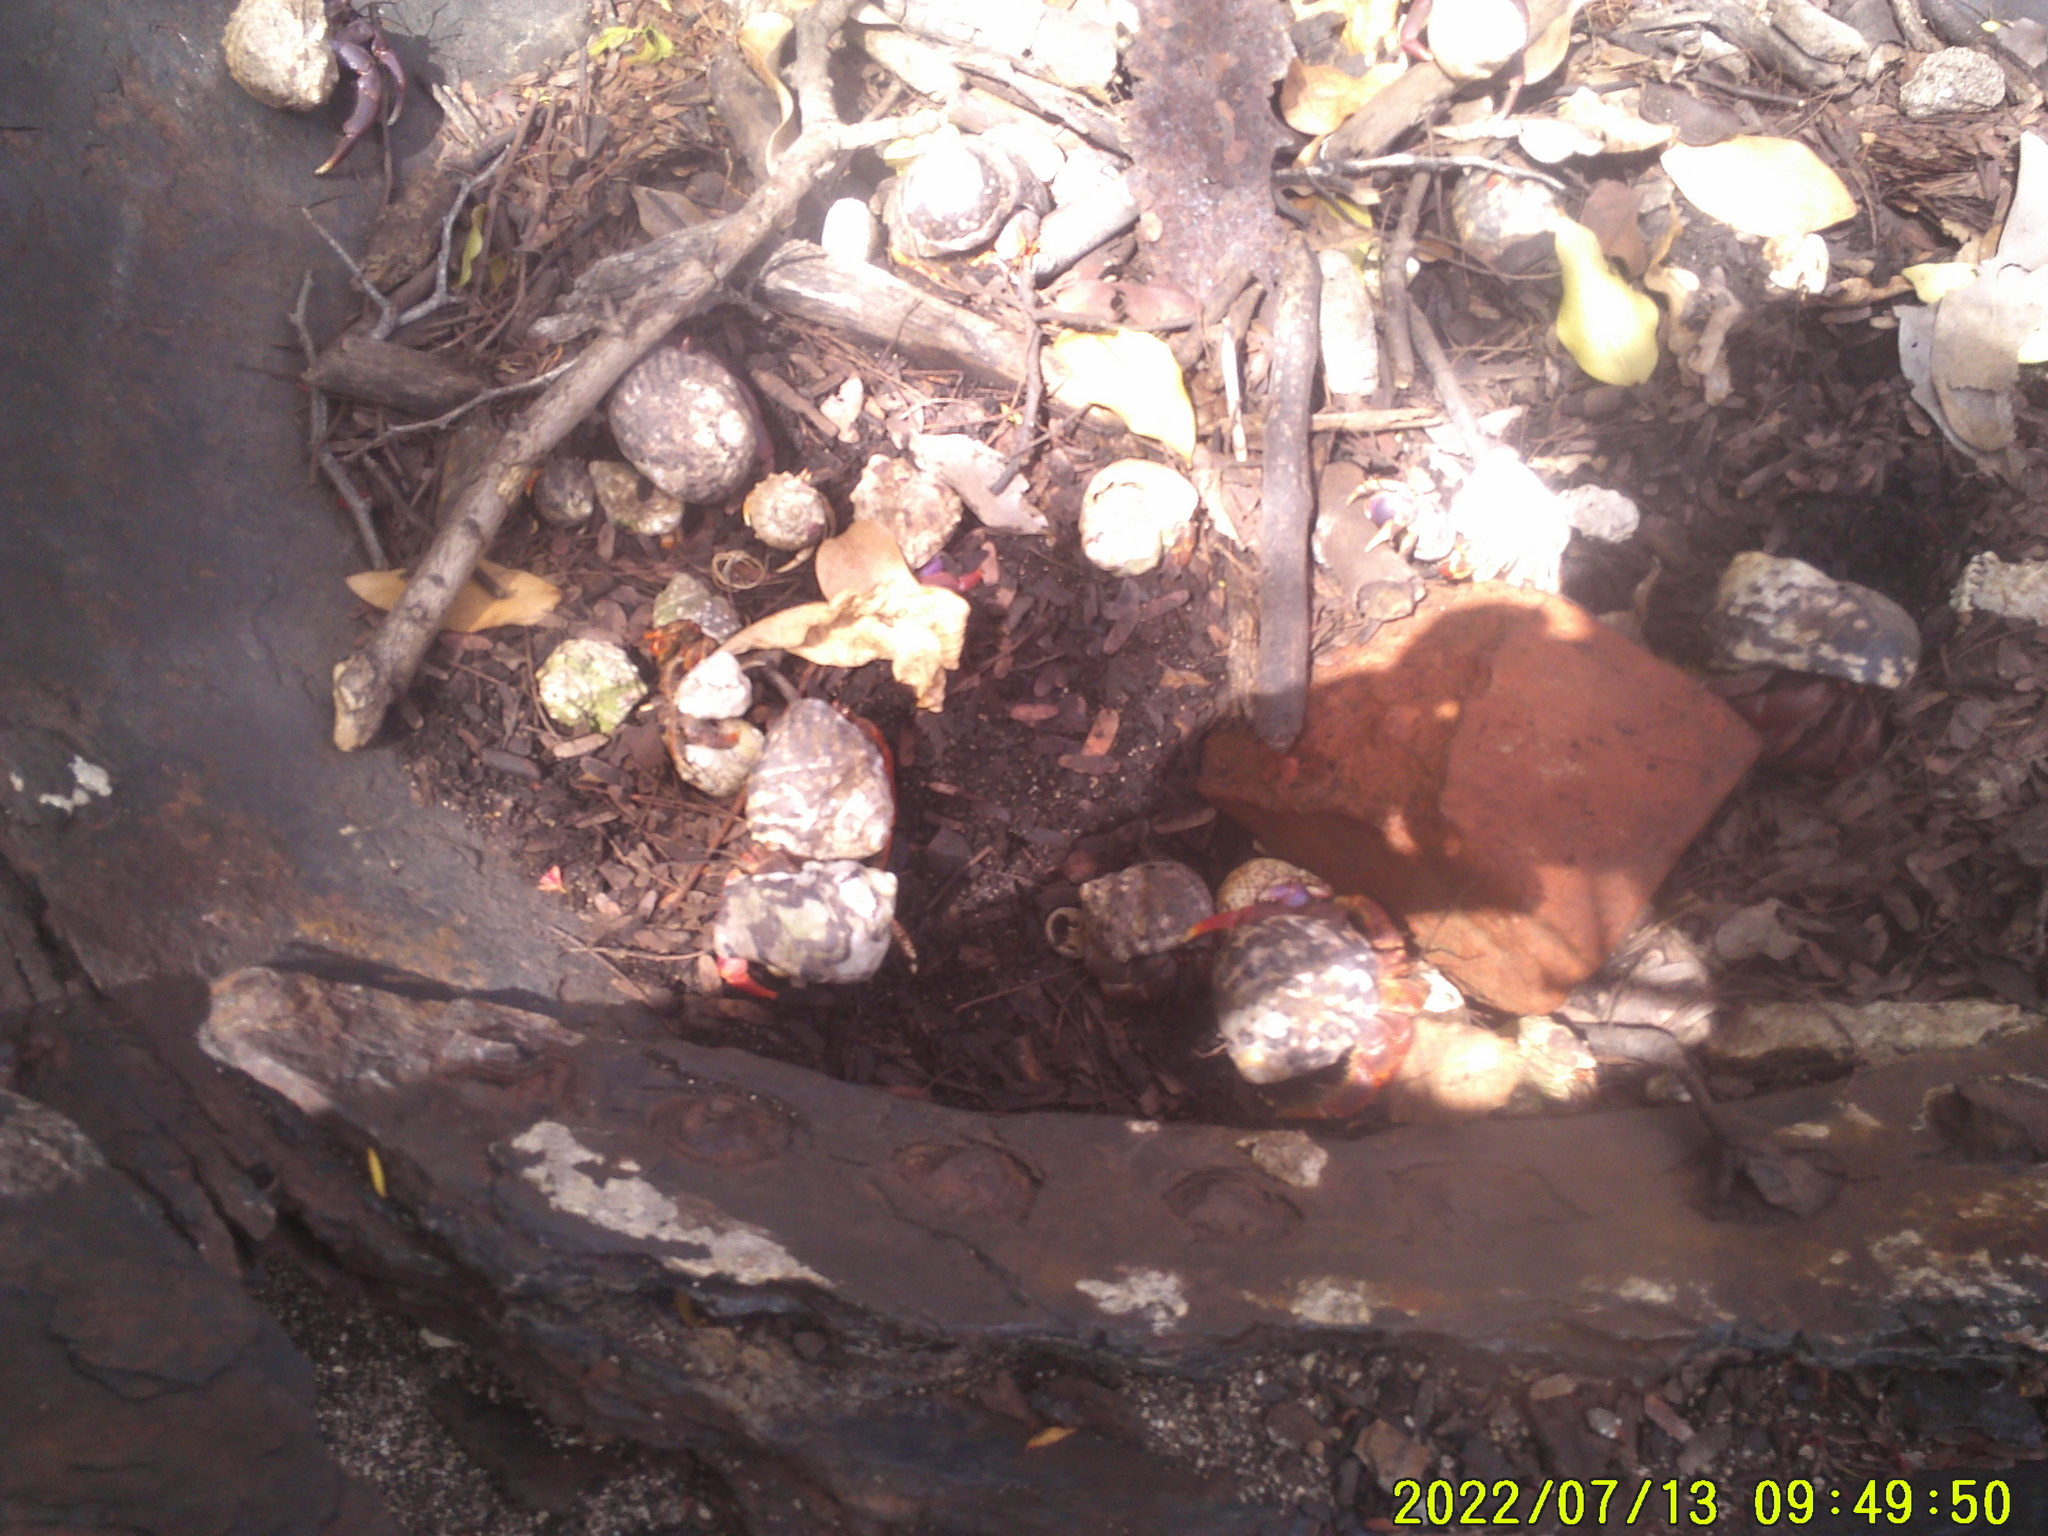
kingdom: Animalia
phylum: Arthropoda
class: Malacostraca
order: Decapoda
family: Coenobitidae
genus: Coenobita
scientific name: Coenobita clypeatus
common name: Caribbean hermit crab
